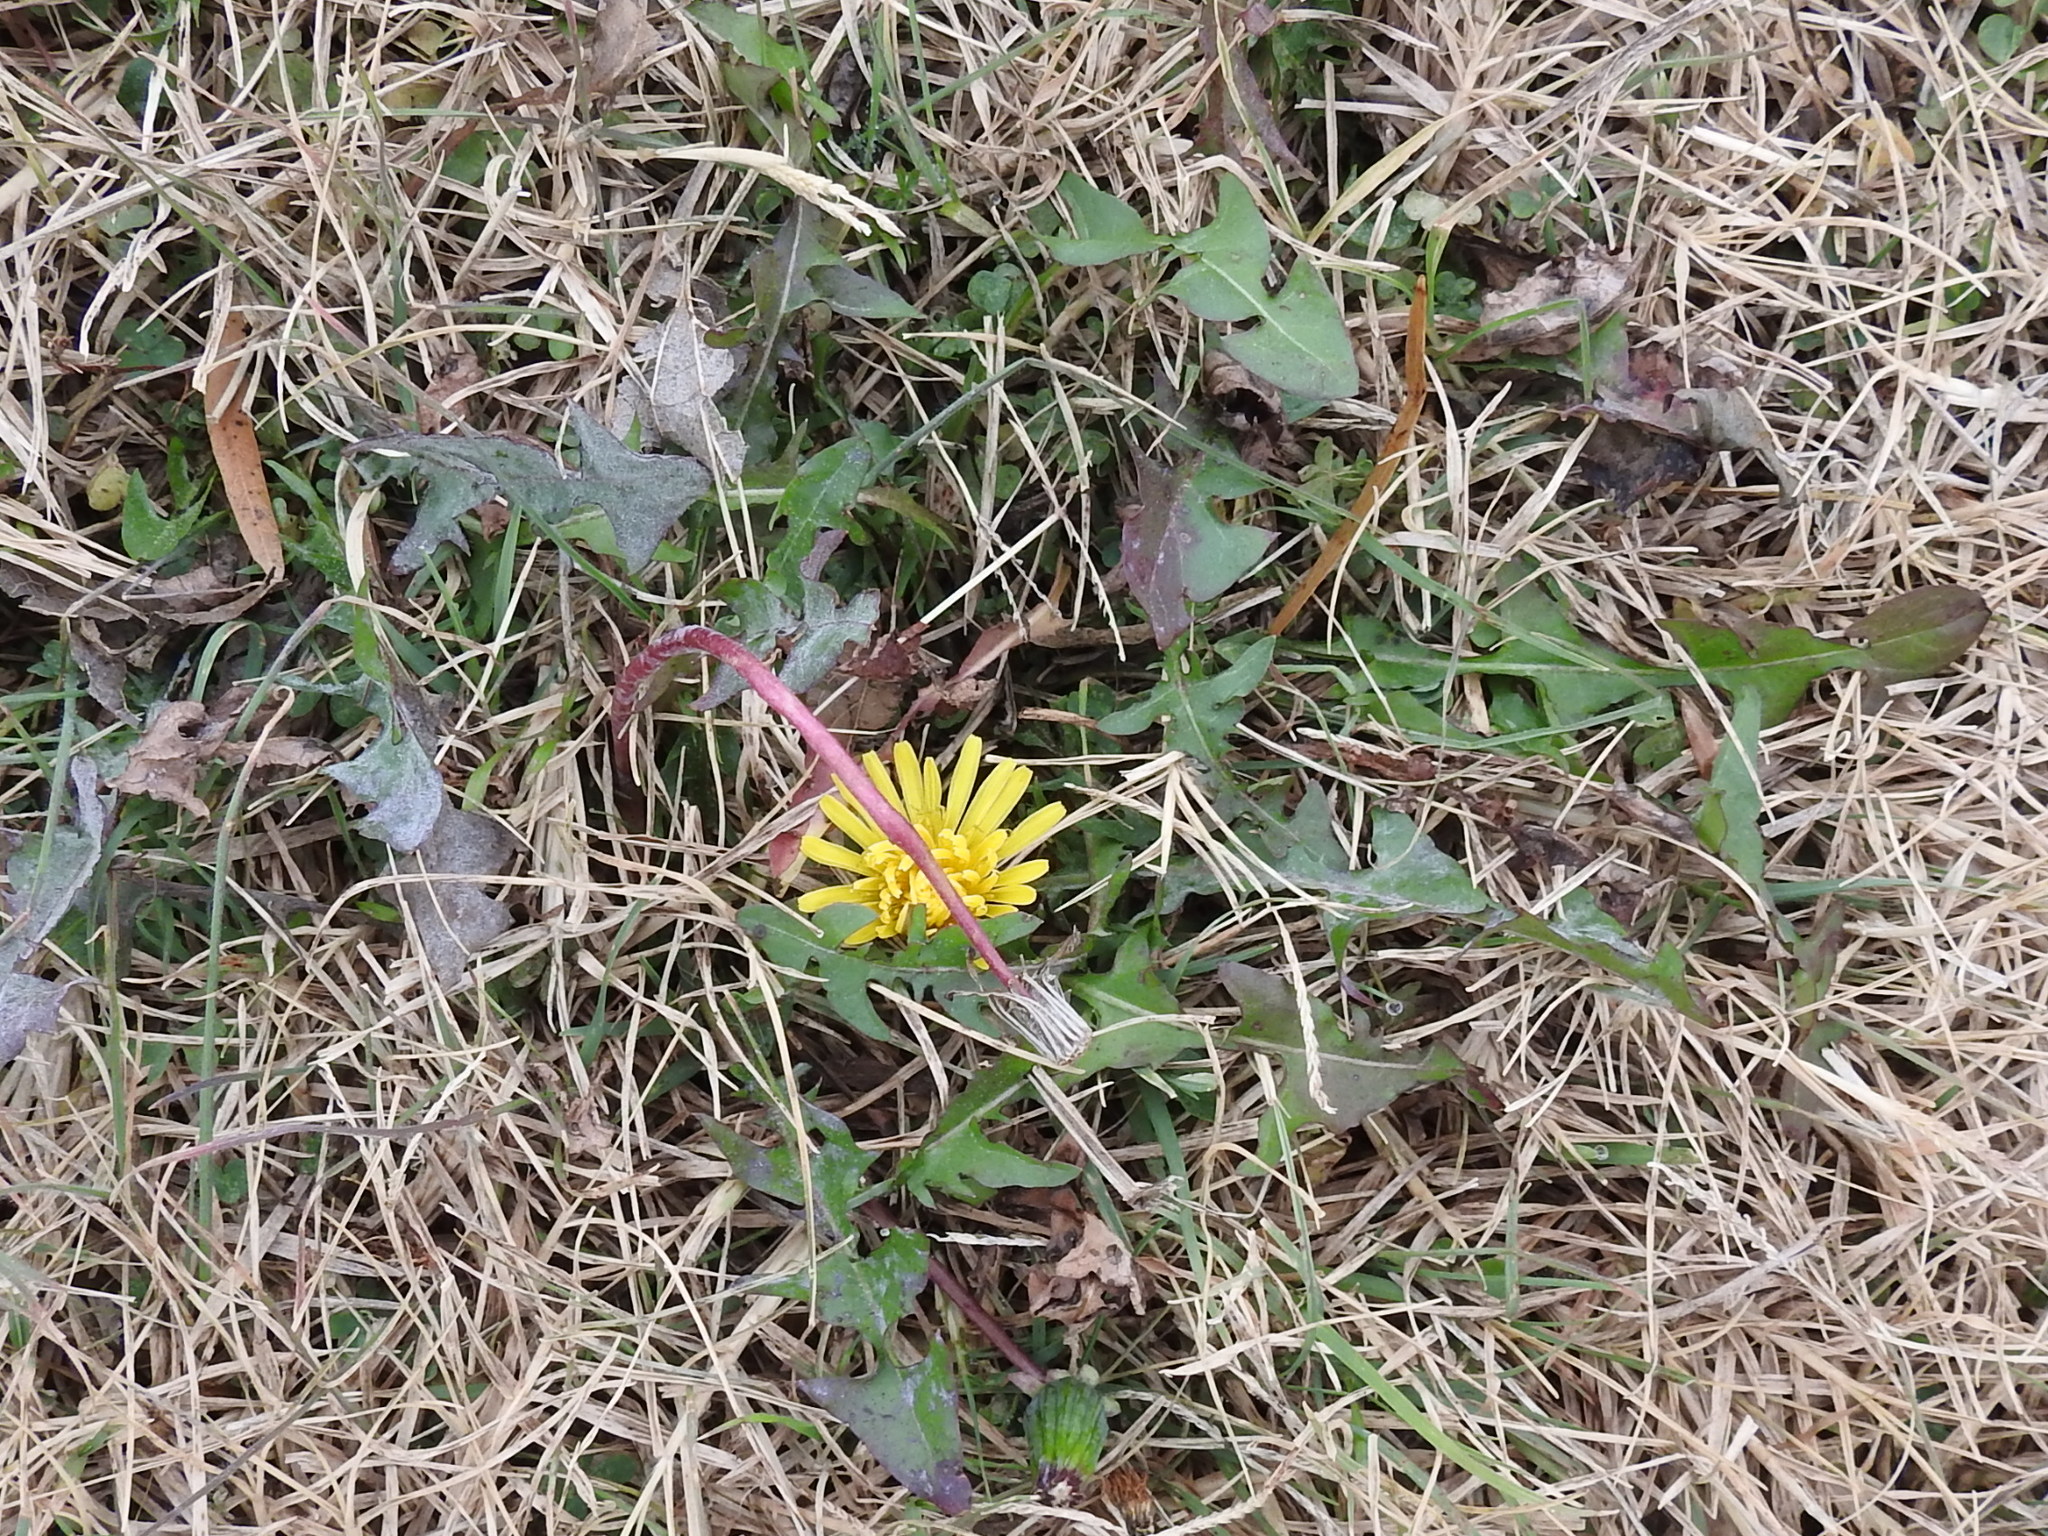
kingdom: Plantae
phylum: Tracheophyta
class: Magnoliopsida
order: Asterales
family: Asteraceae
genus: Taraxacum
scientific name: Taraxacum officinale
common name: Common dandelion
